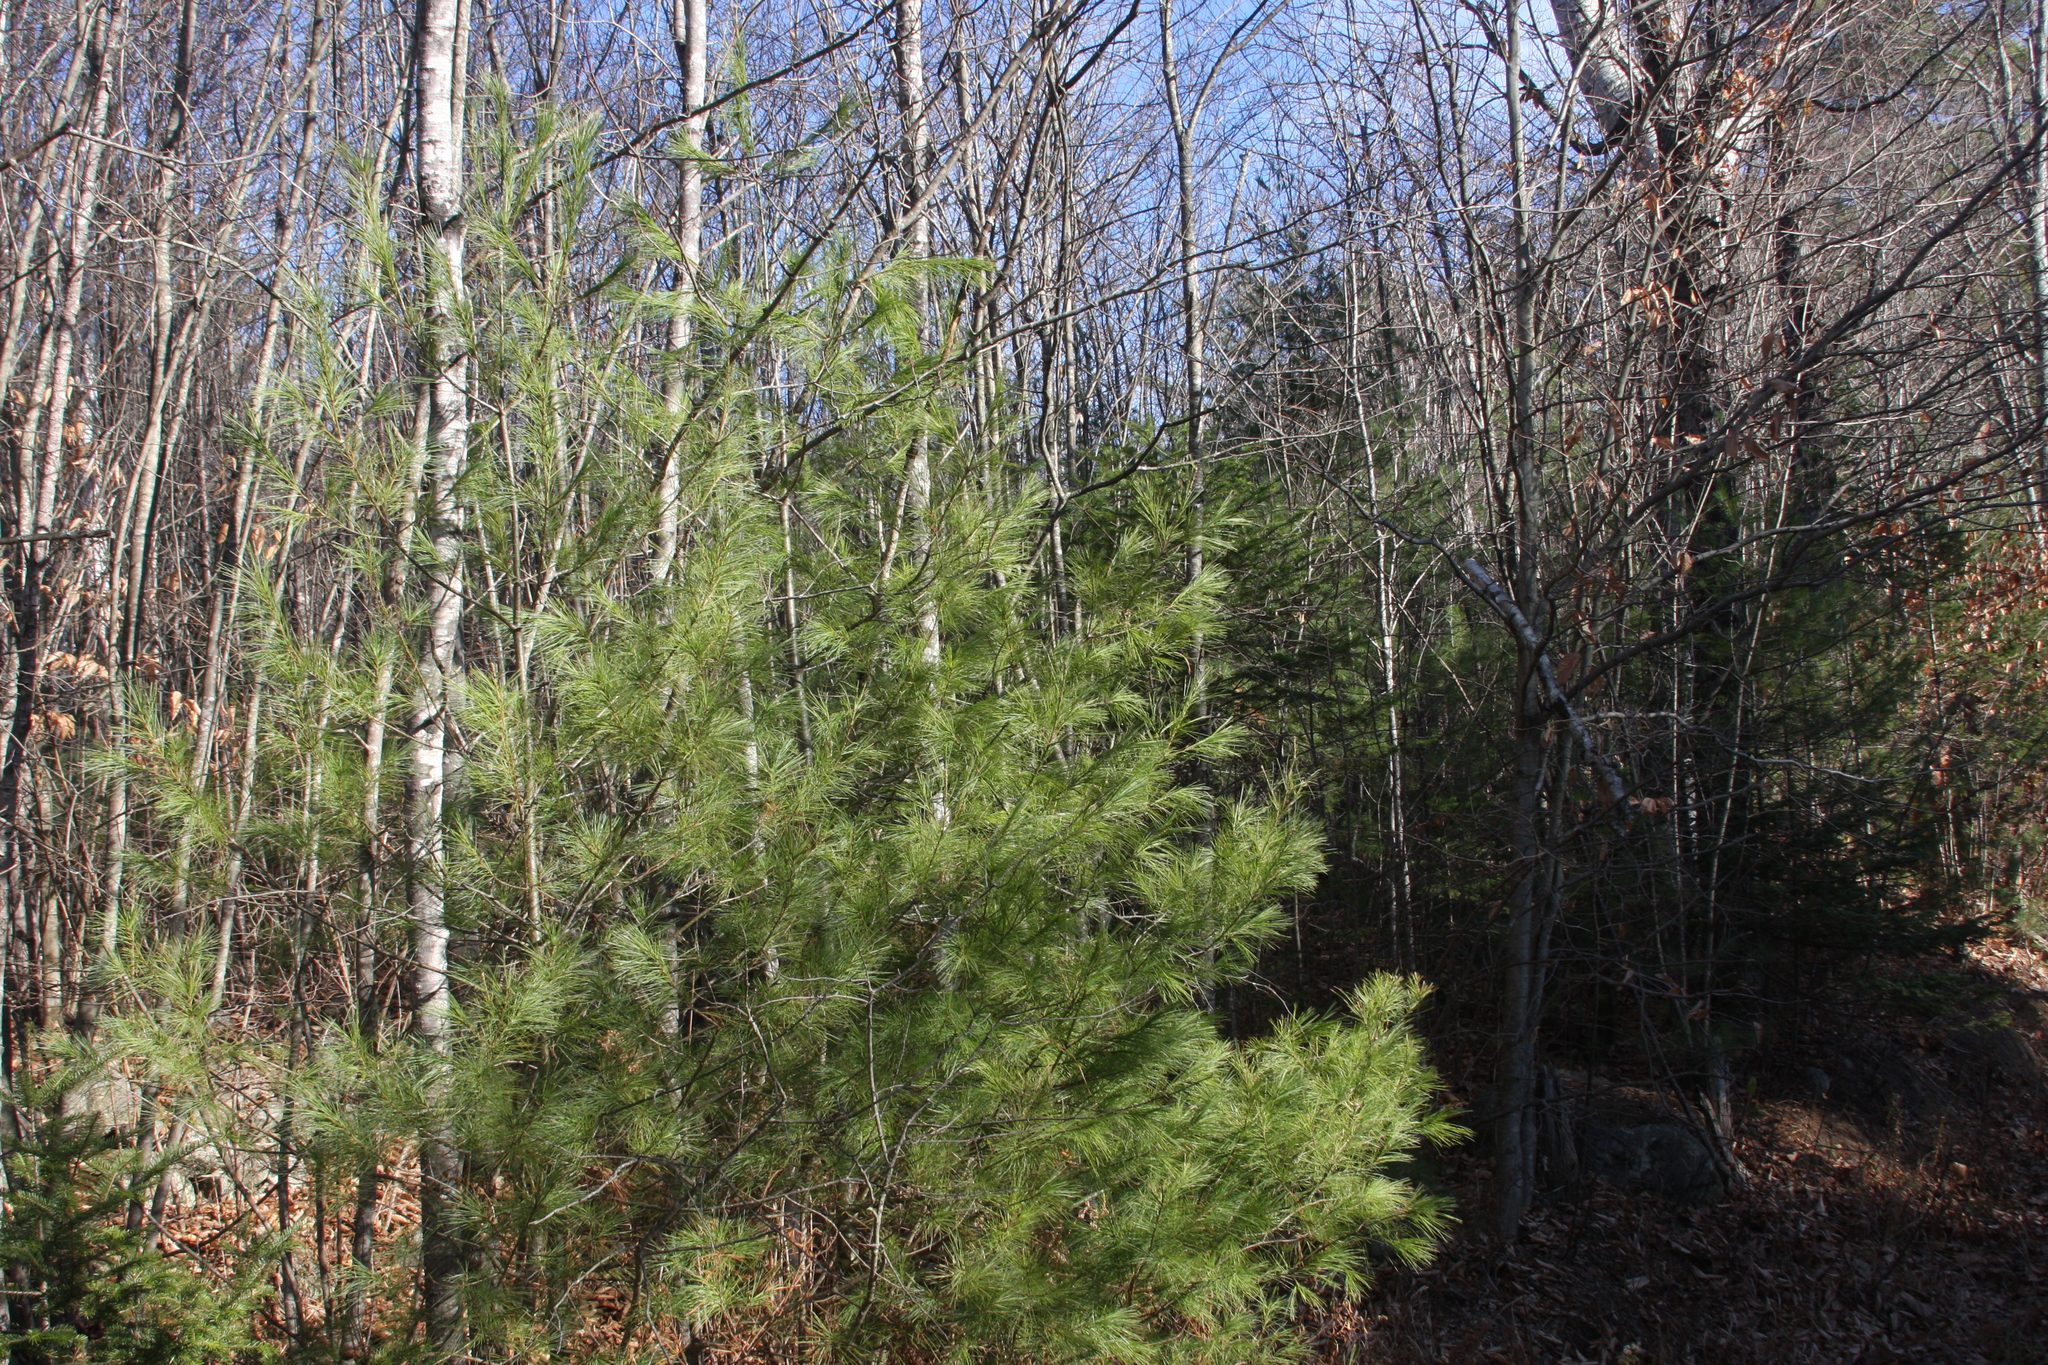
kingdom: Plantae
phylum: Tracheophyta
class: Pinopsida
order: Pinales
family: Pinaceae
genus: Pinus
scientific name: Pinus strobus
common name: Weymouth pine
